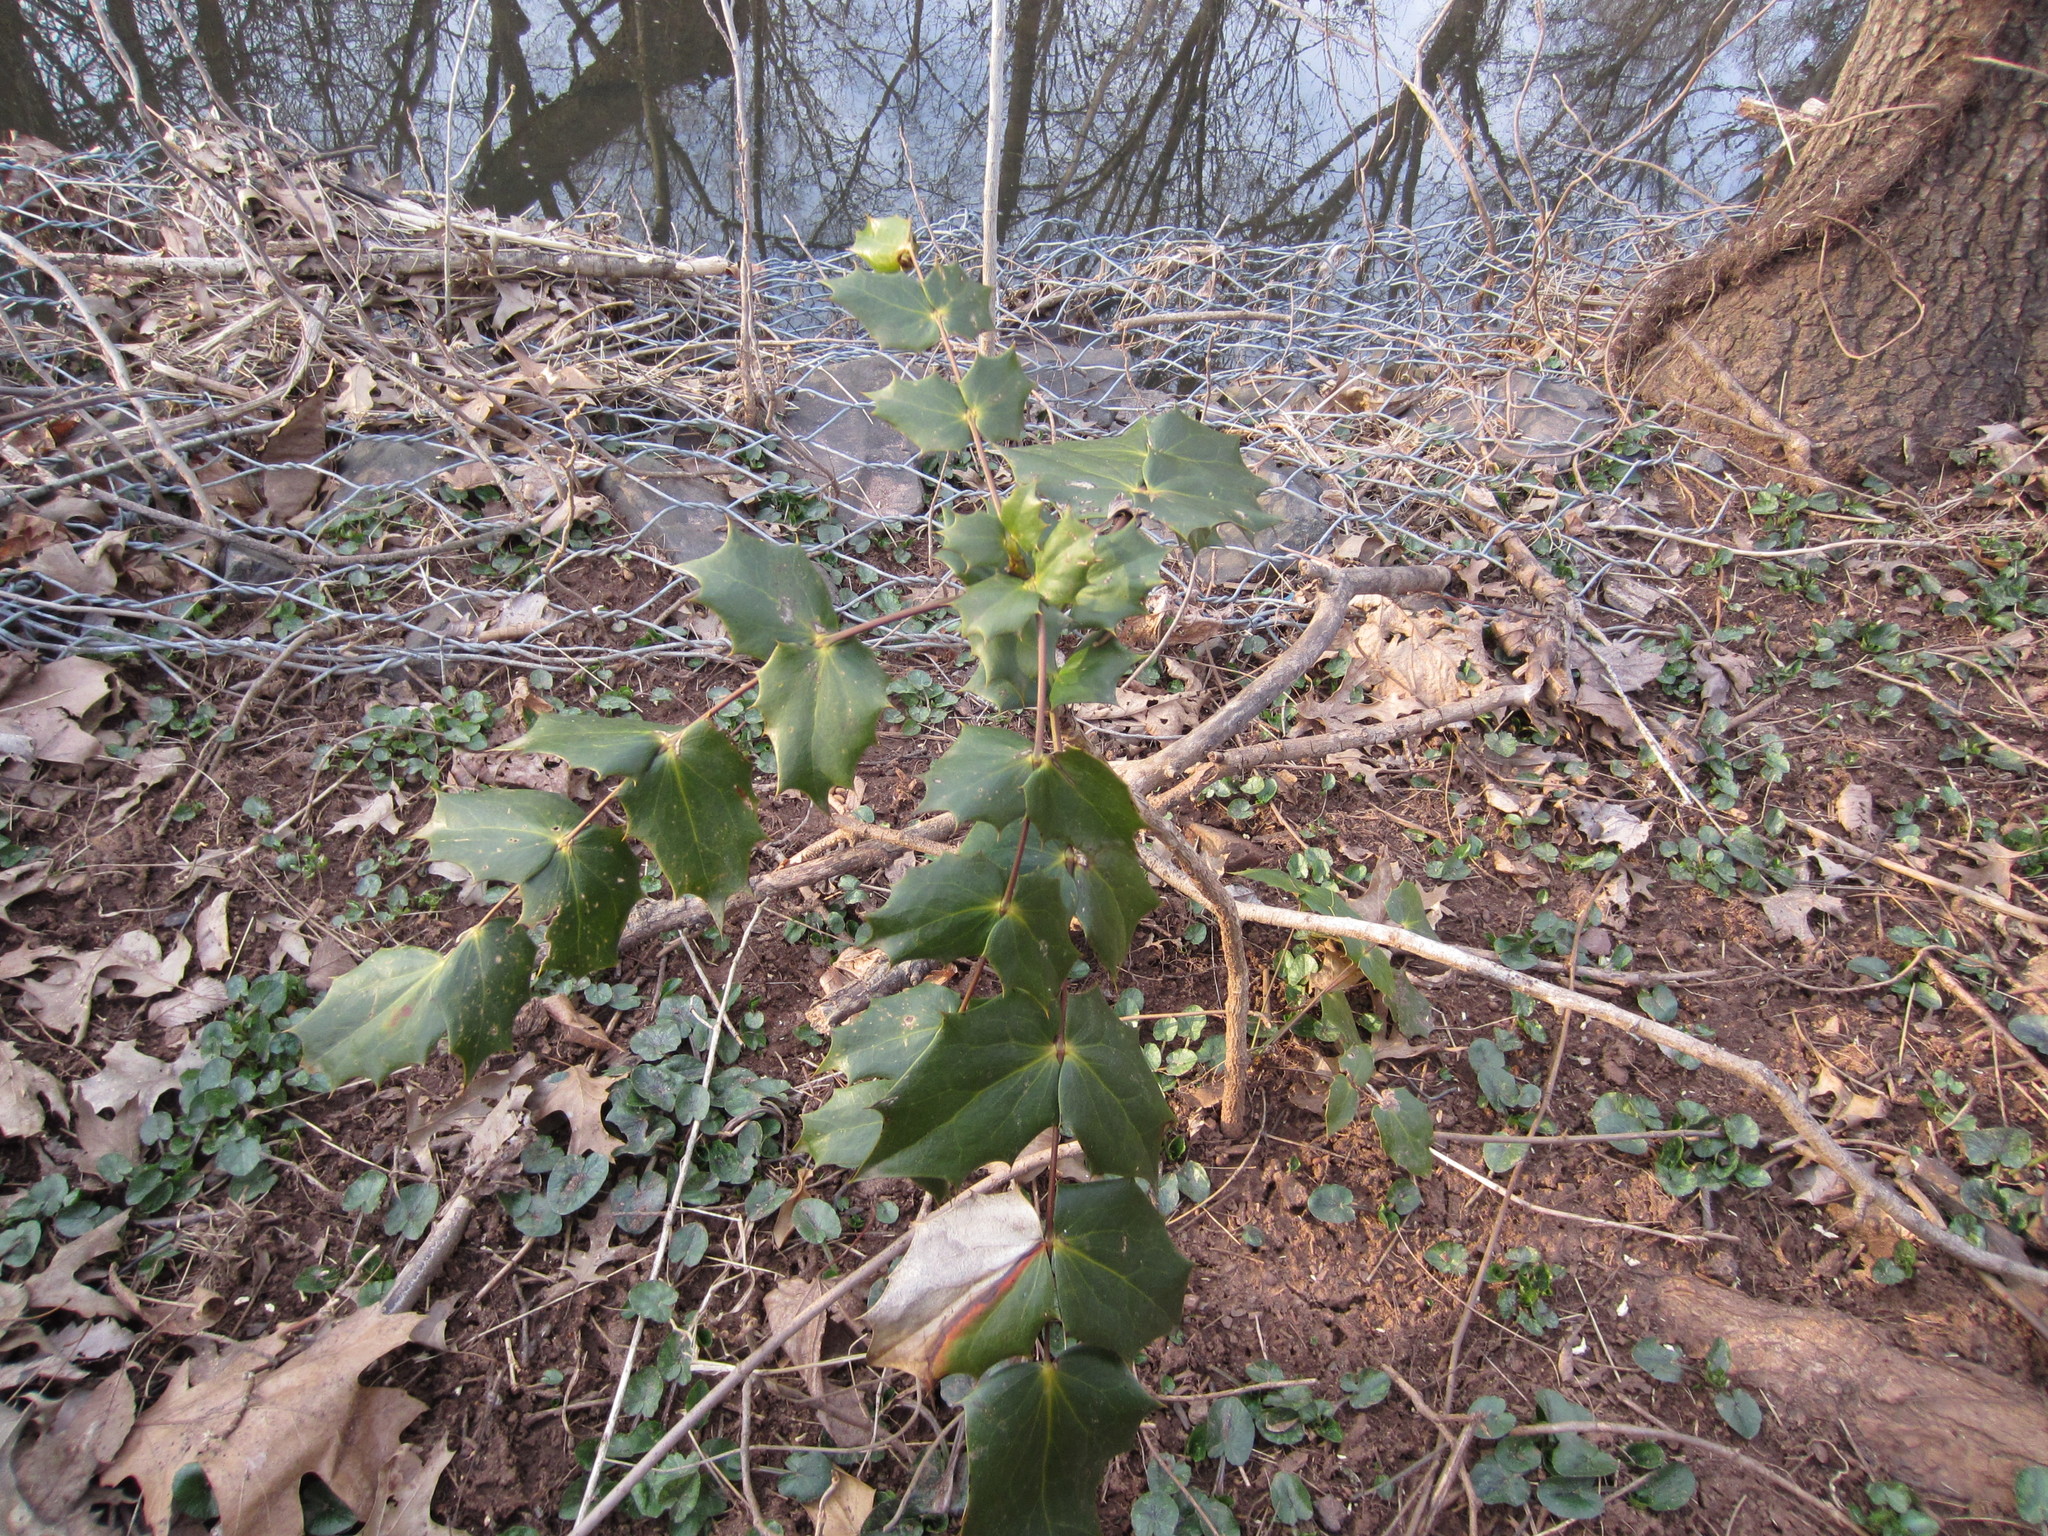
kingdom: Plantae
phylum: Tracheophyta
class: Magnoliopsida
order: Ranunculales
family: Berberidaceae
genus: Mahonia
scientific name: Mahonia bealei
